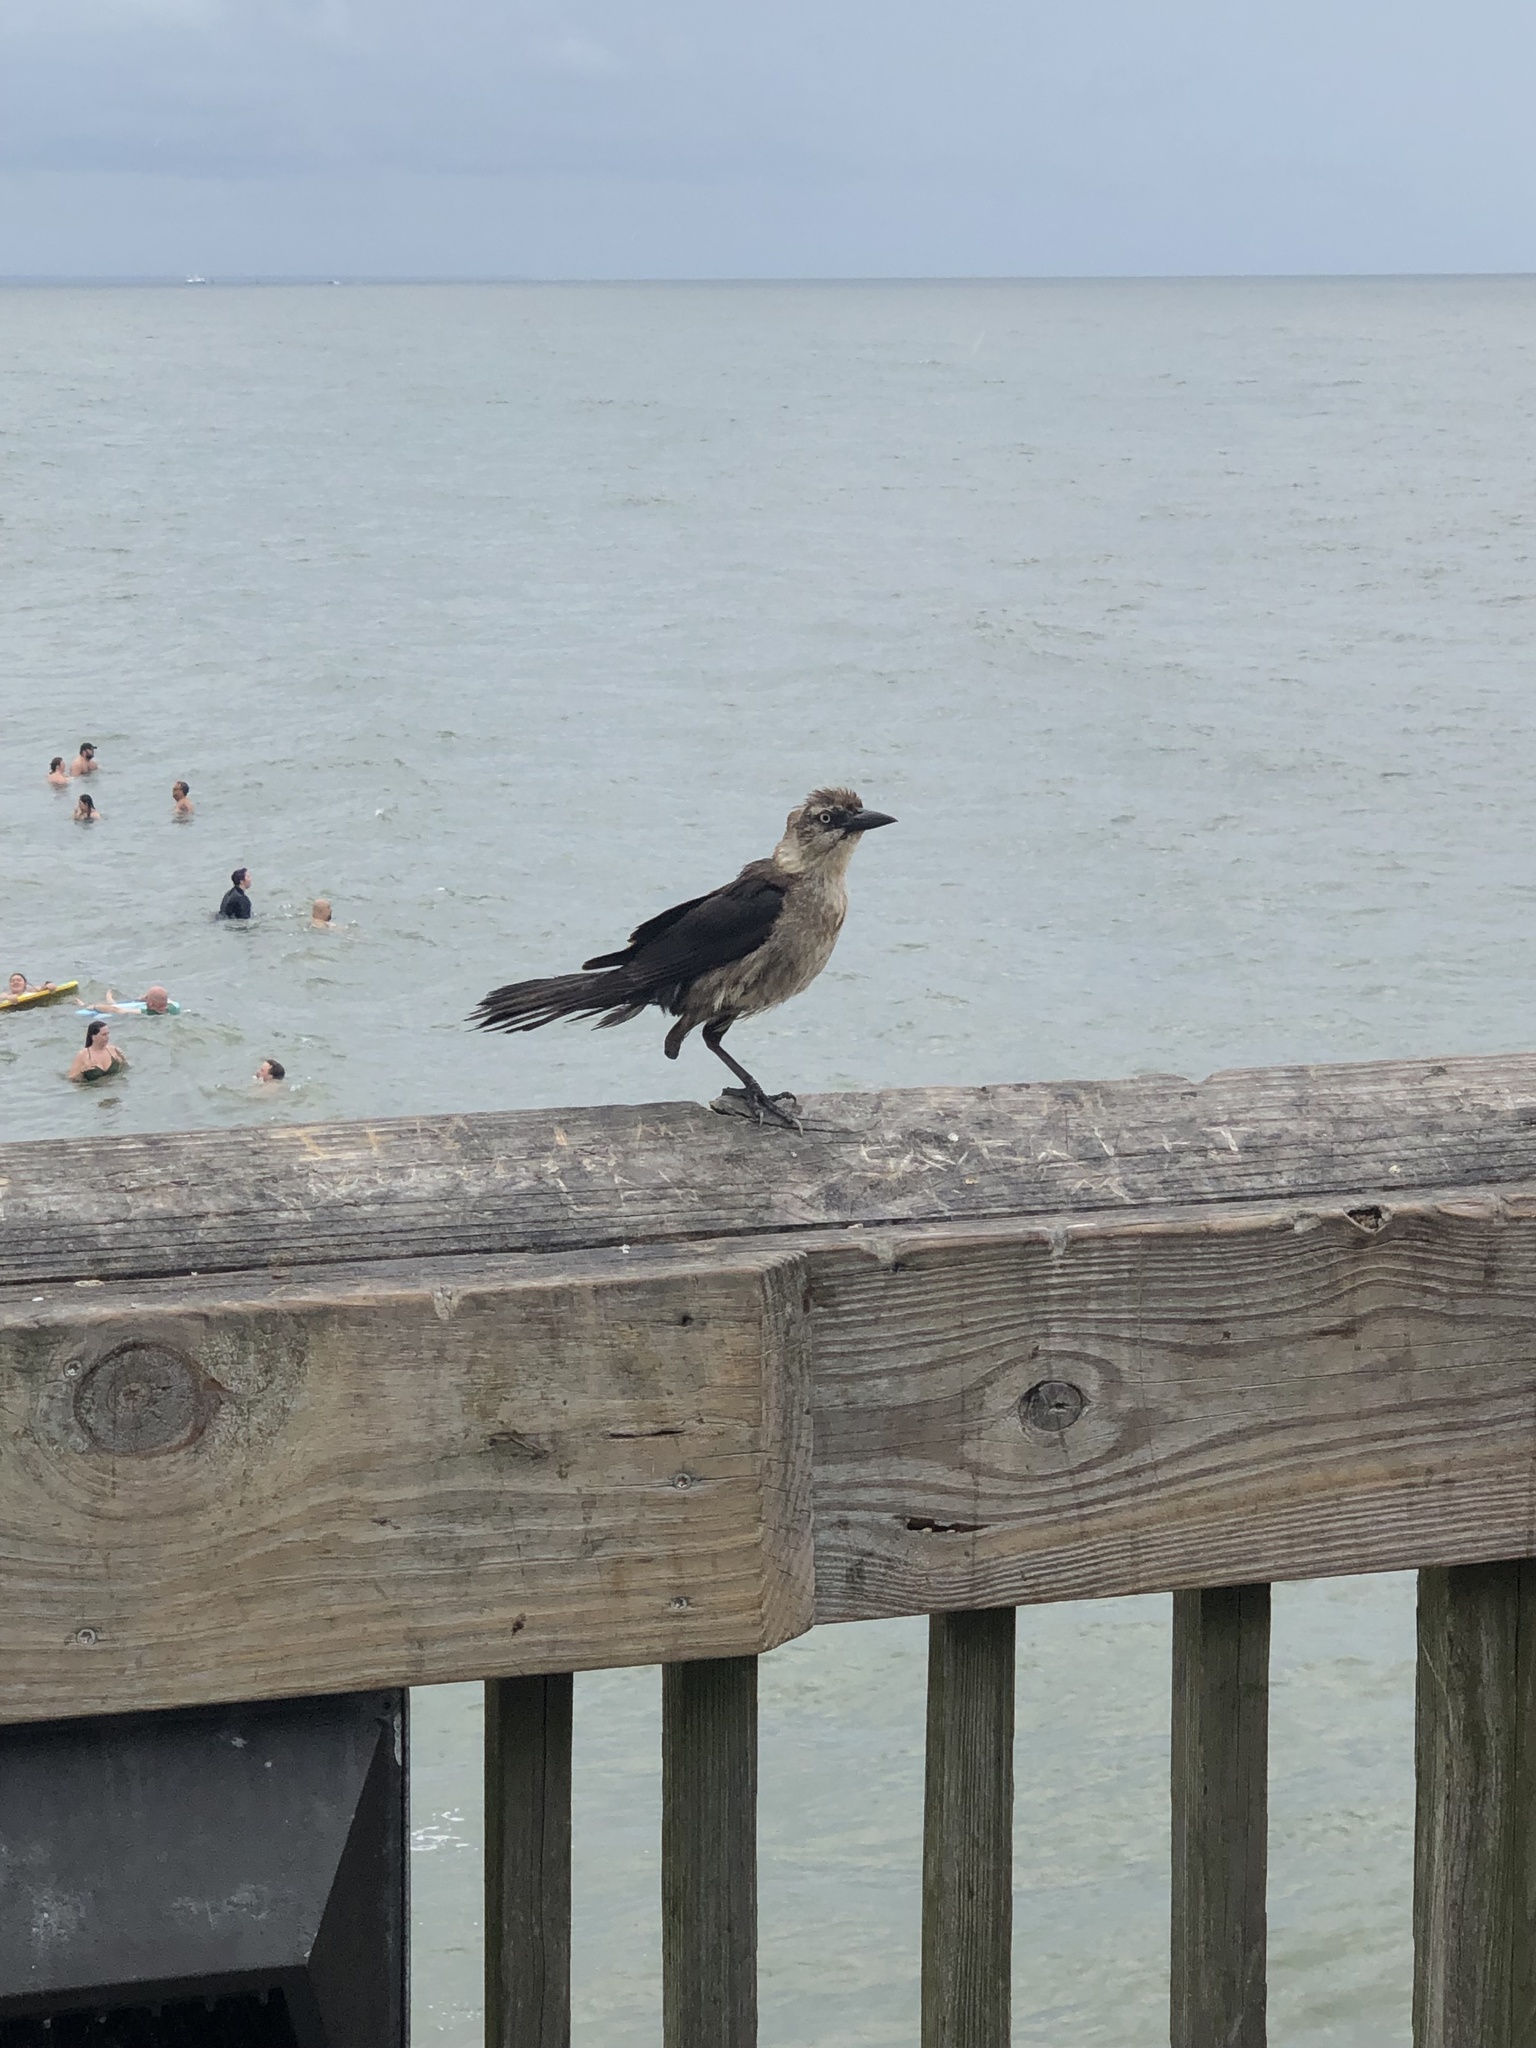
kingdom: Animalia
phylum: Chordata
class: Aves
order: Passeriformes
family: Icteridae
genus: Quiscalus
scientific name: Quiscalus major
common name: Boat-tailed grackle
